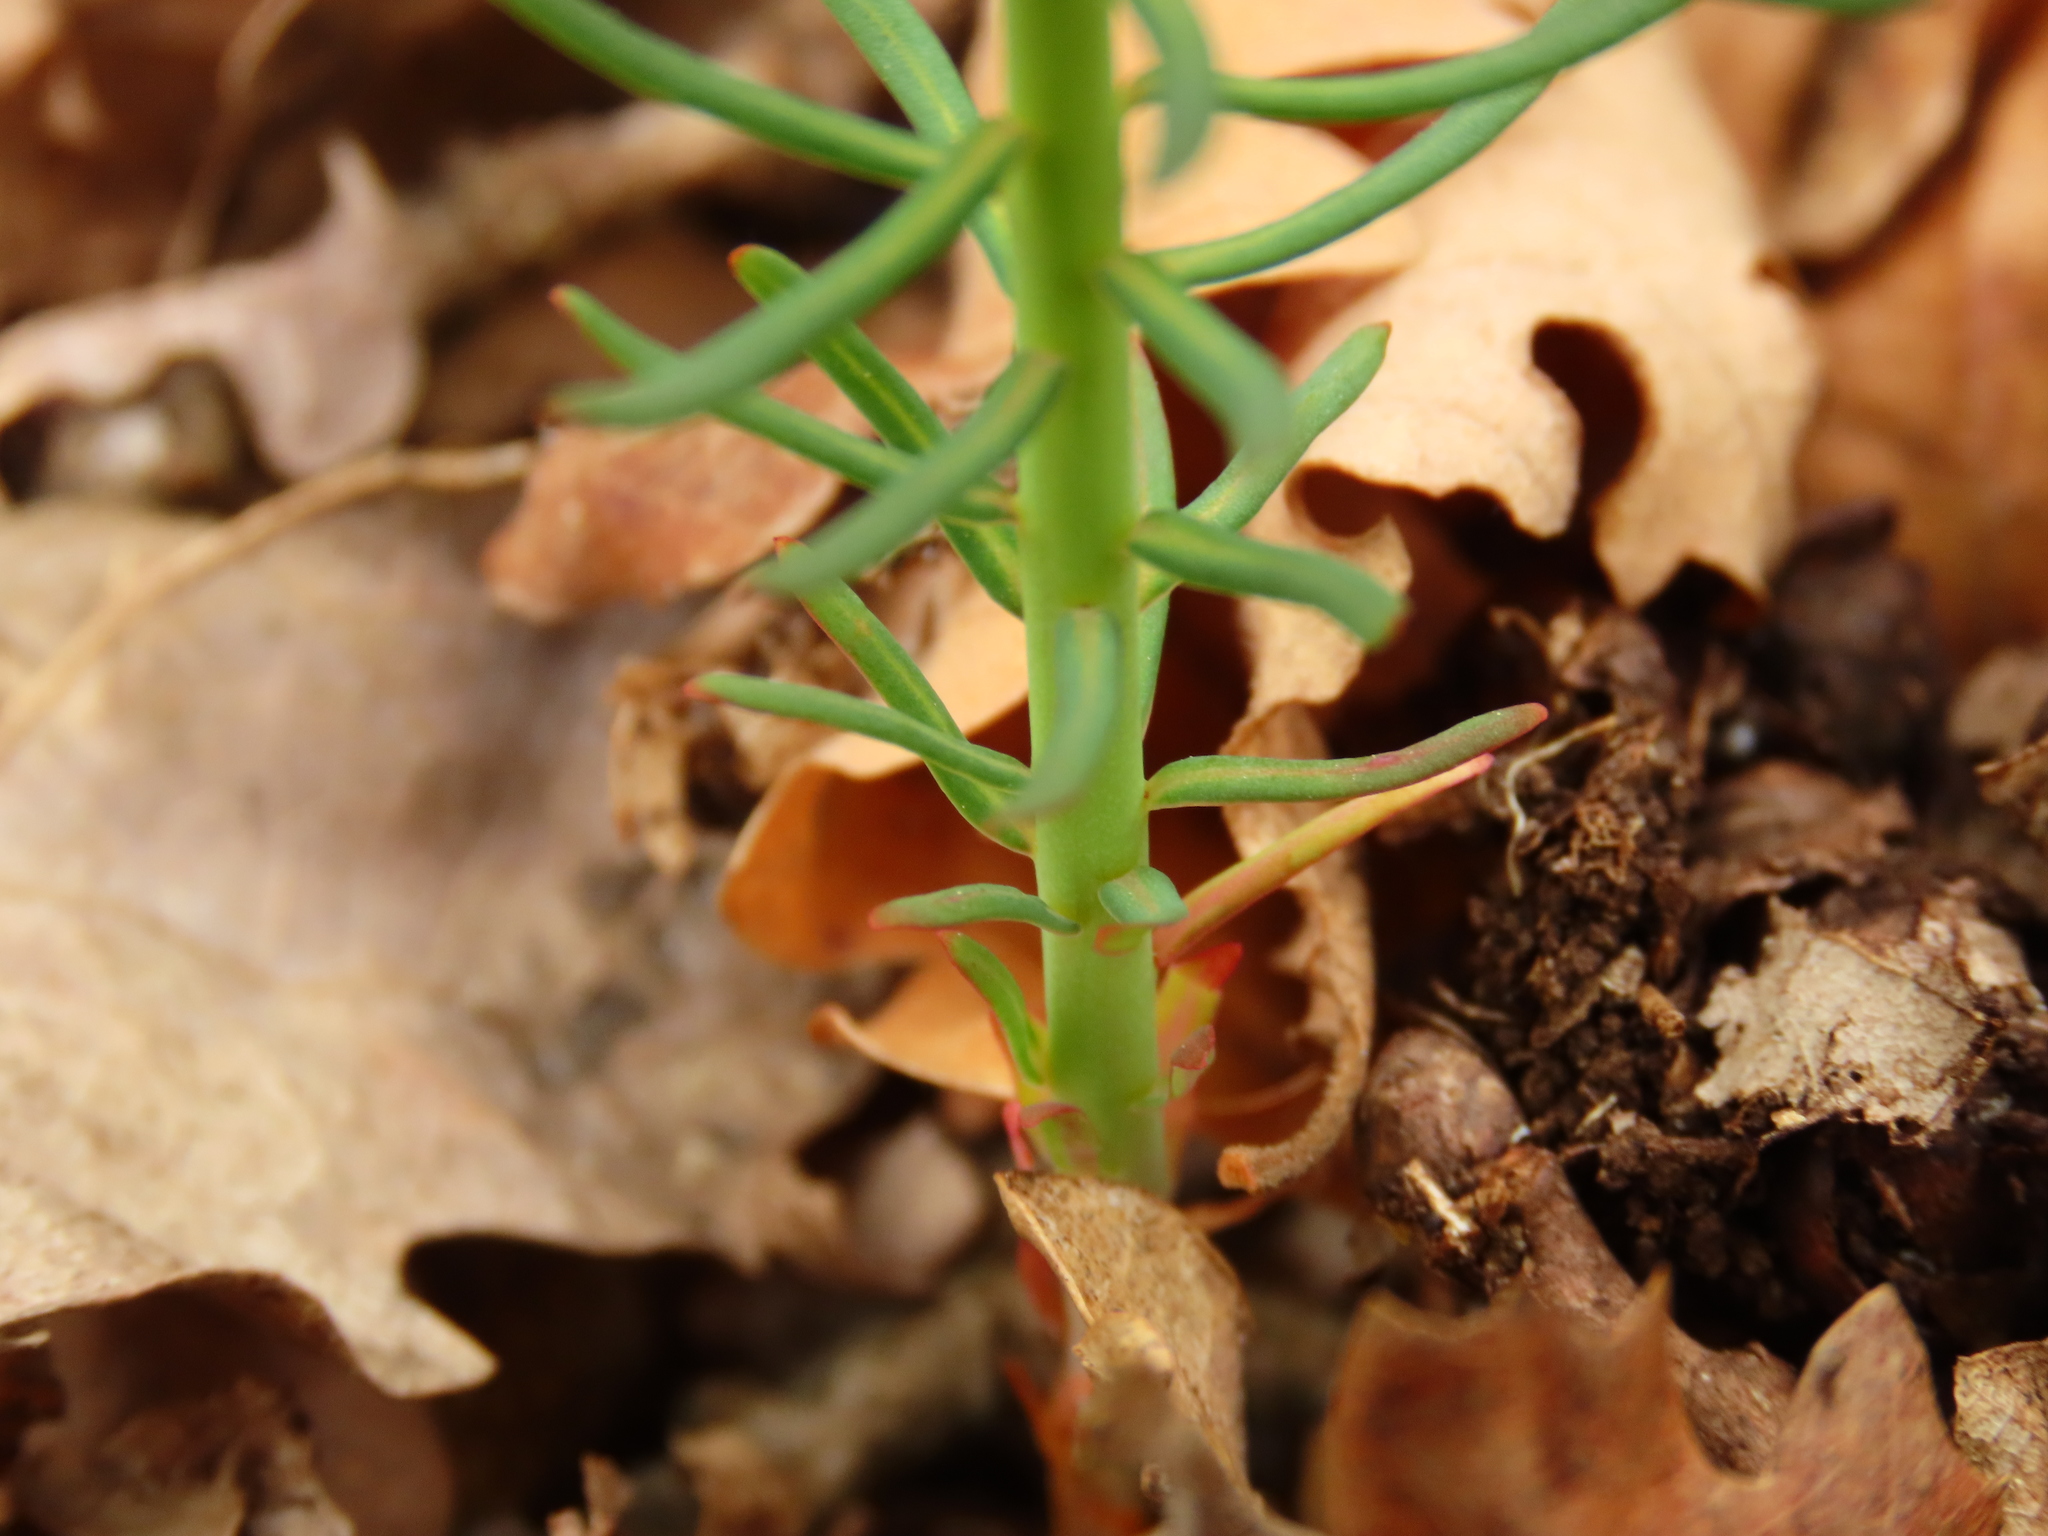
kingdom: Plantae
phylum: Tracheophyta
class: Magnoliopsida
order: Malpighiales
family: Euphorbiaceae
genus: Euphorbia
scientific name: Euphorbia cyparissias
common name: Cypress spurge
